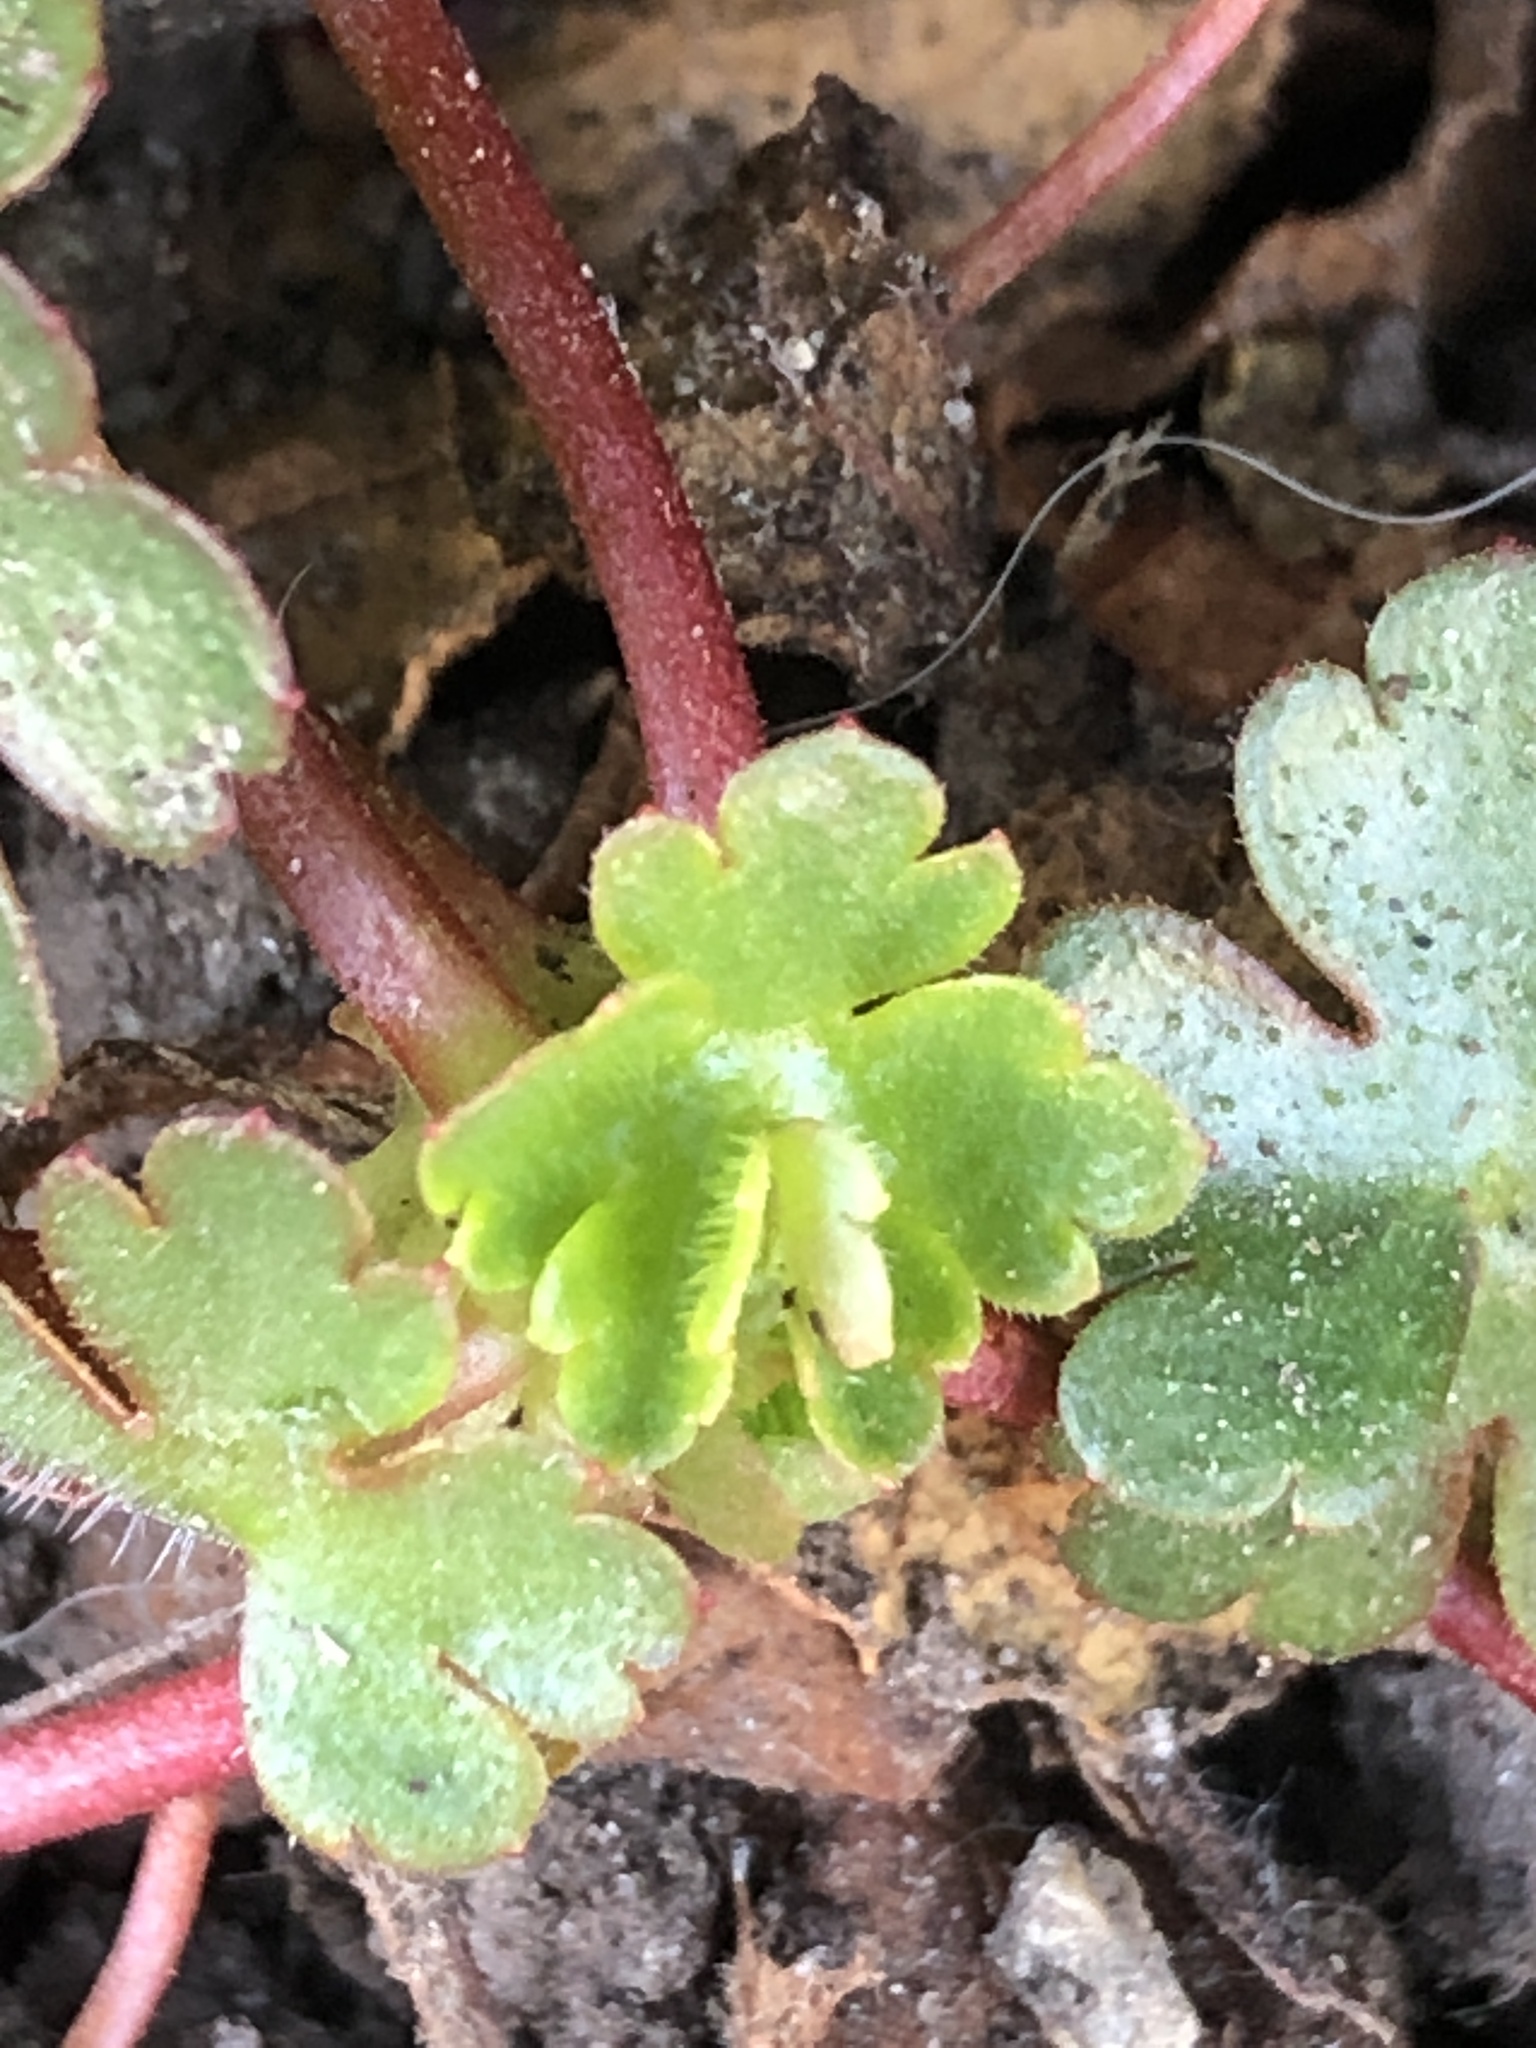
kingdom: Plantae
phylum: Tracheophyta
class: Magnoliopsida
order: Geraniales
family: Geraniaceae
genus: Geranium
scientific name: Geranium lucidum
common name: Shining crane's-bill
